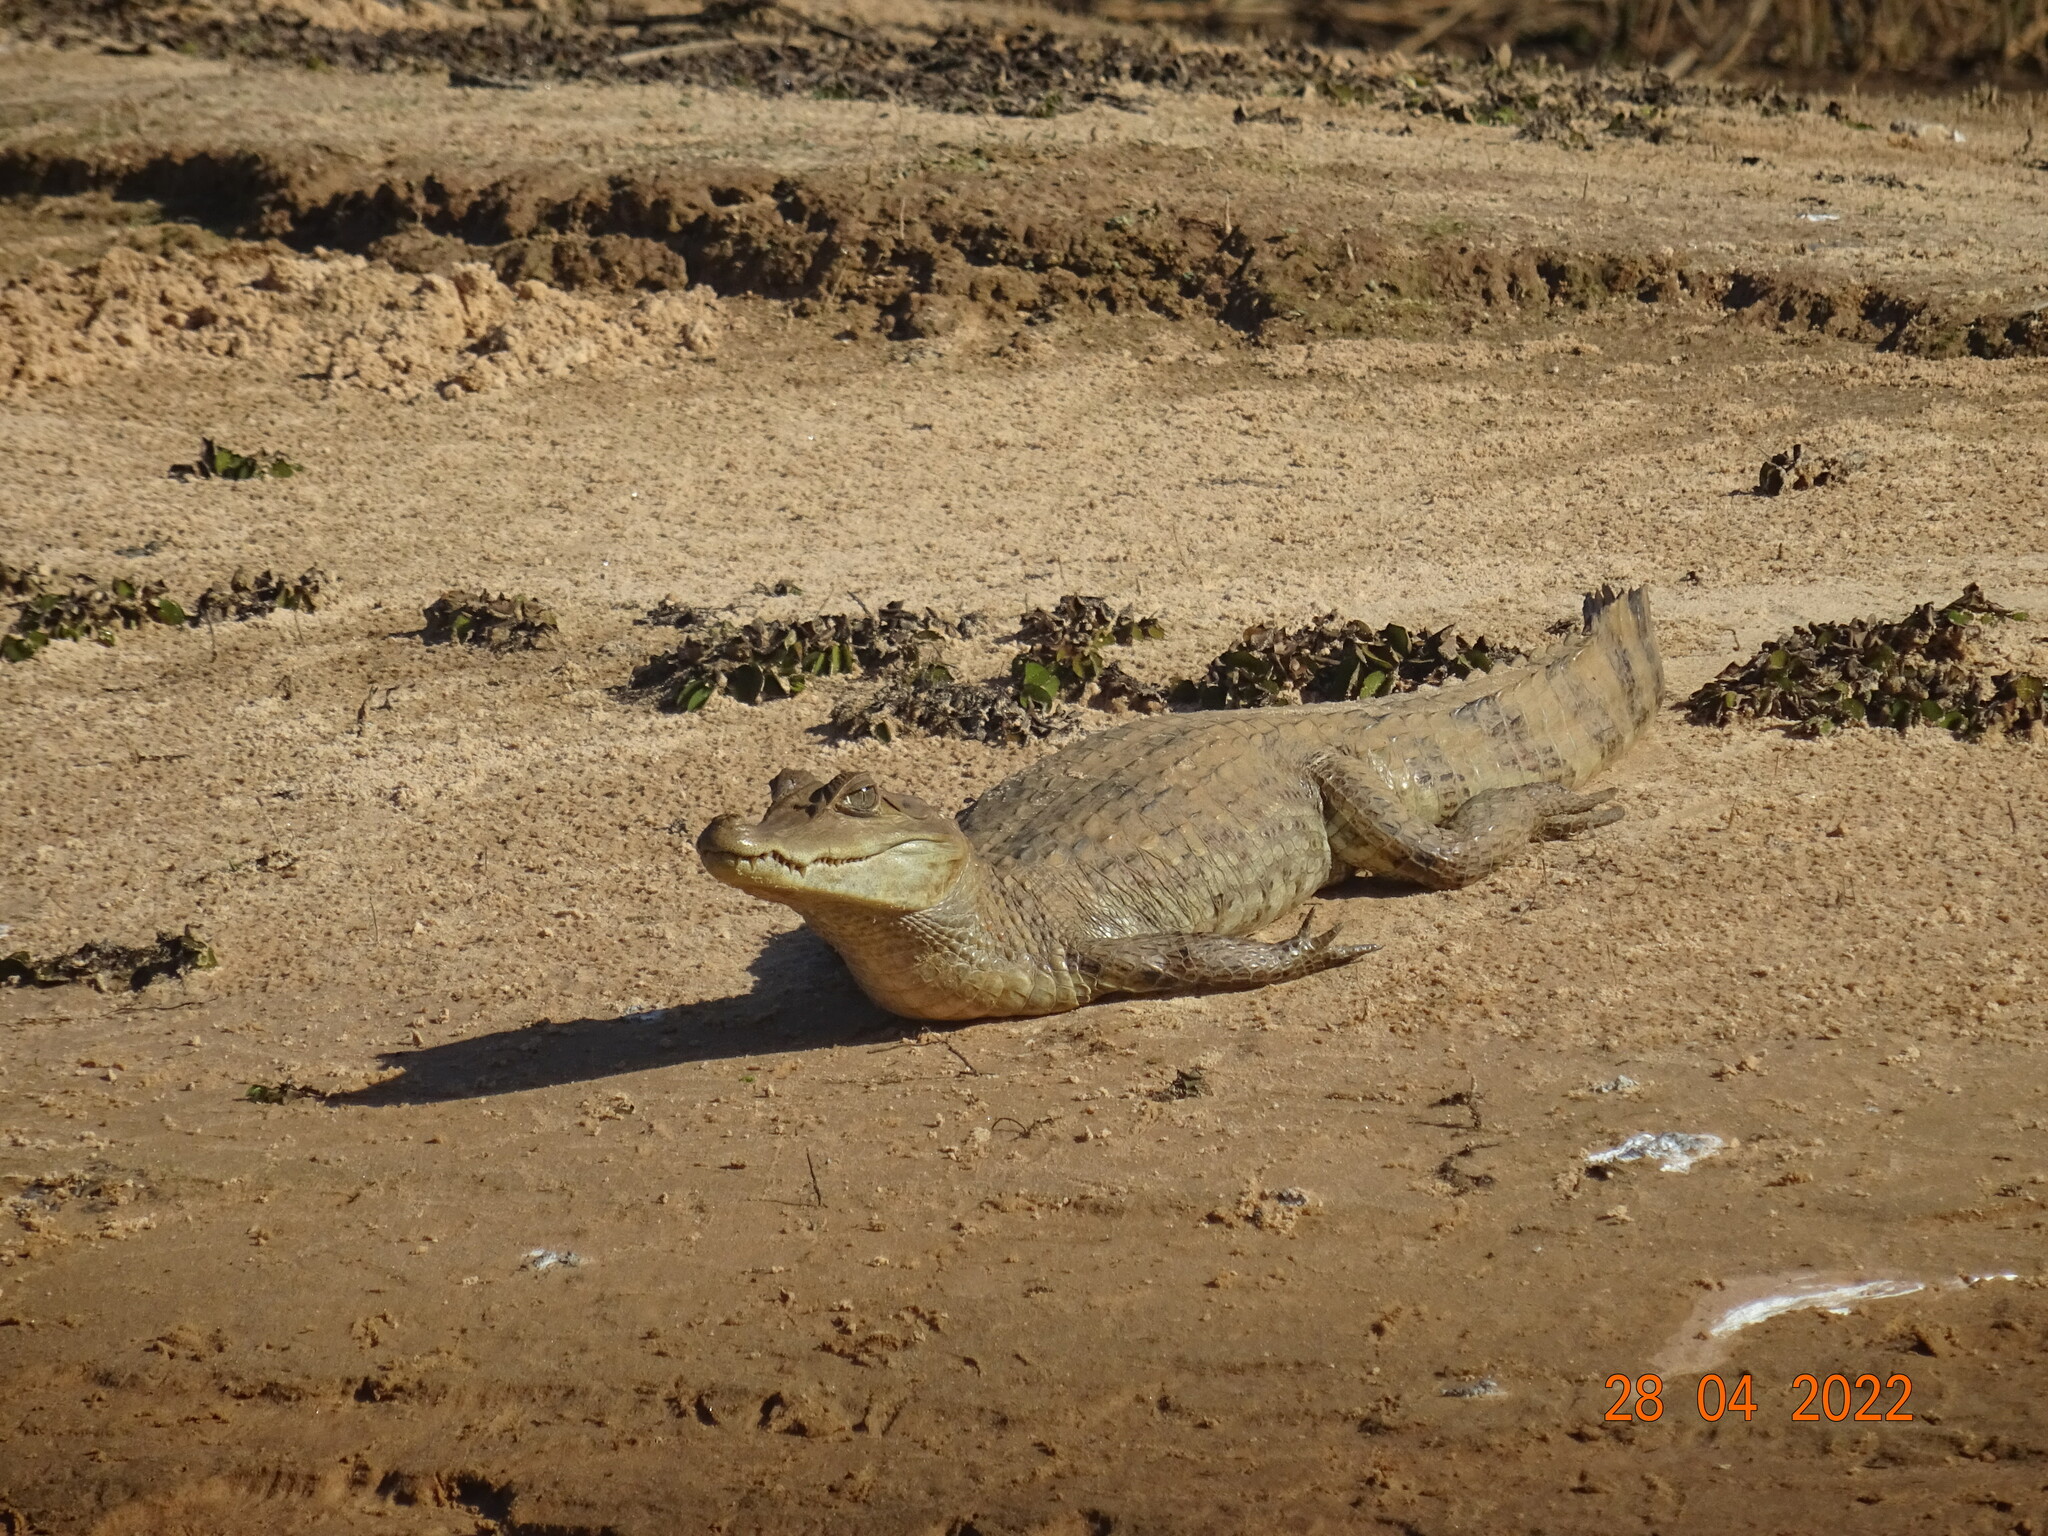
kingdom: Animalia
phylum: Chordata
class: Crocodylia
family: Alligatoridae
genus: Caiman
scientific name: Caiman crocodilus
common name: Common caiman
